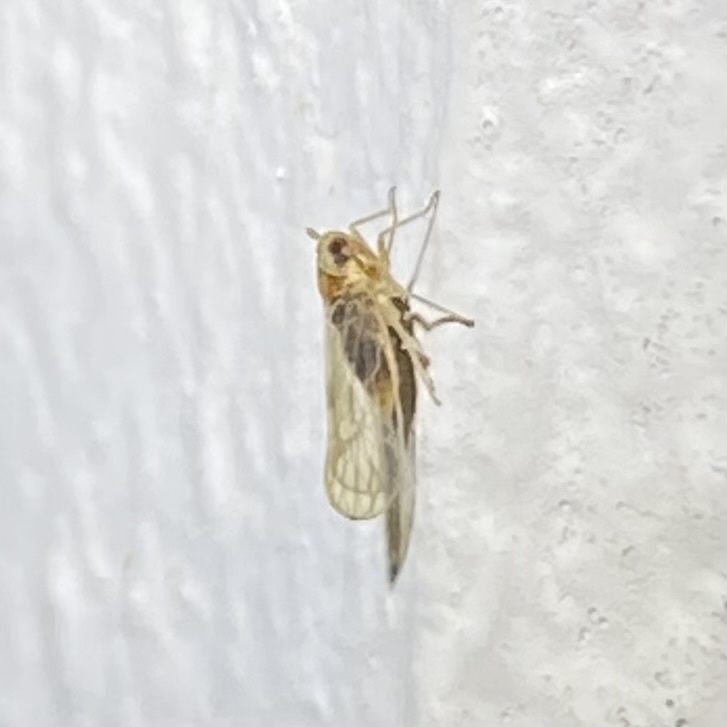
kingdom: Animalia
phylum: Arthropoda
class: Insecta
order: Hemiptera
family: Delphacidae
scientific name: Delphacidae
